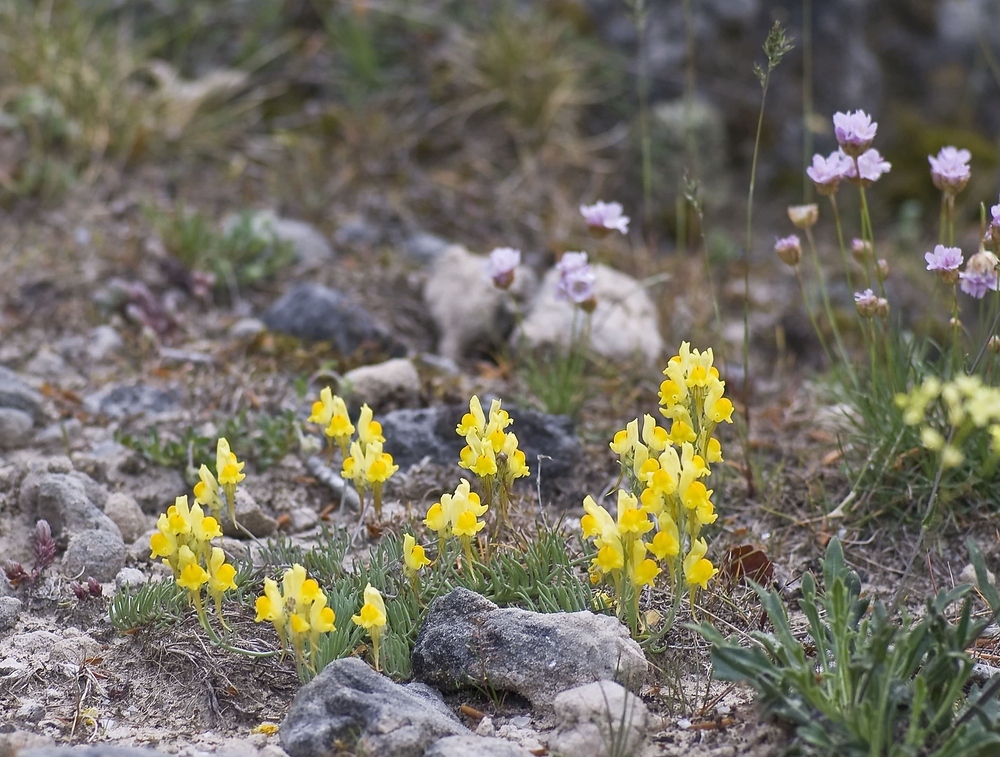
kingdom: Plantae
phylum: Tracheophyta
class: Magnoliopsida
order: Lamiales
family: Plantaginaceae
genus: Linaria
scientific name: Linaria supina
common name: Prostrate toadflax
